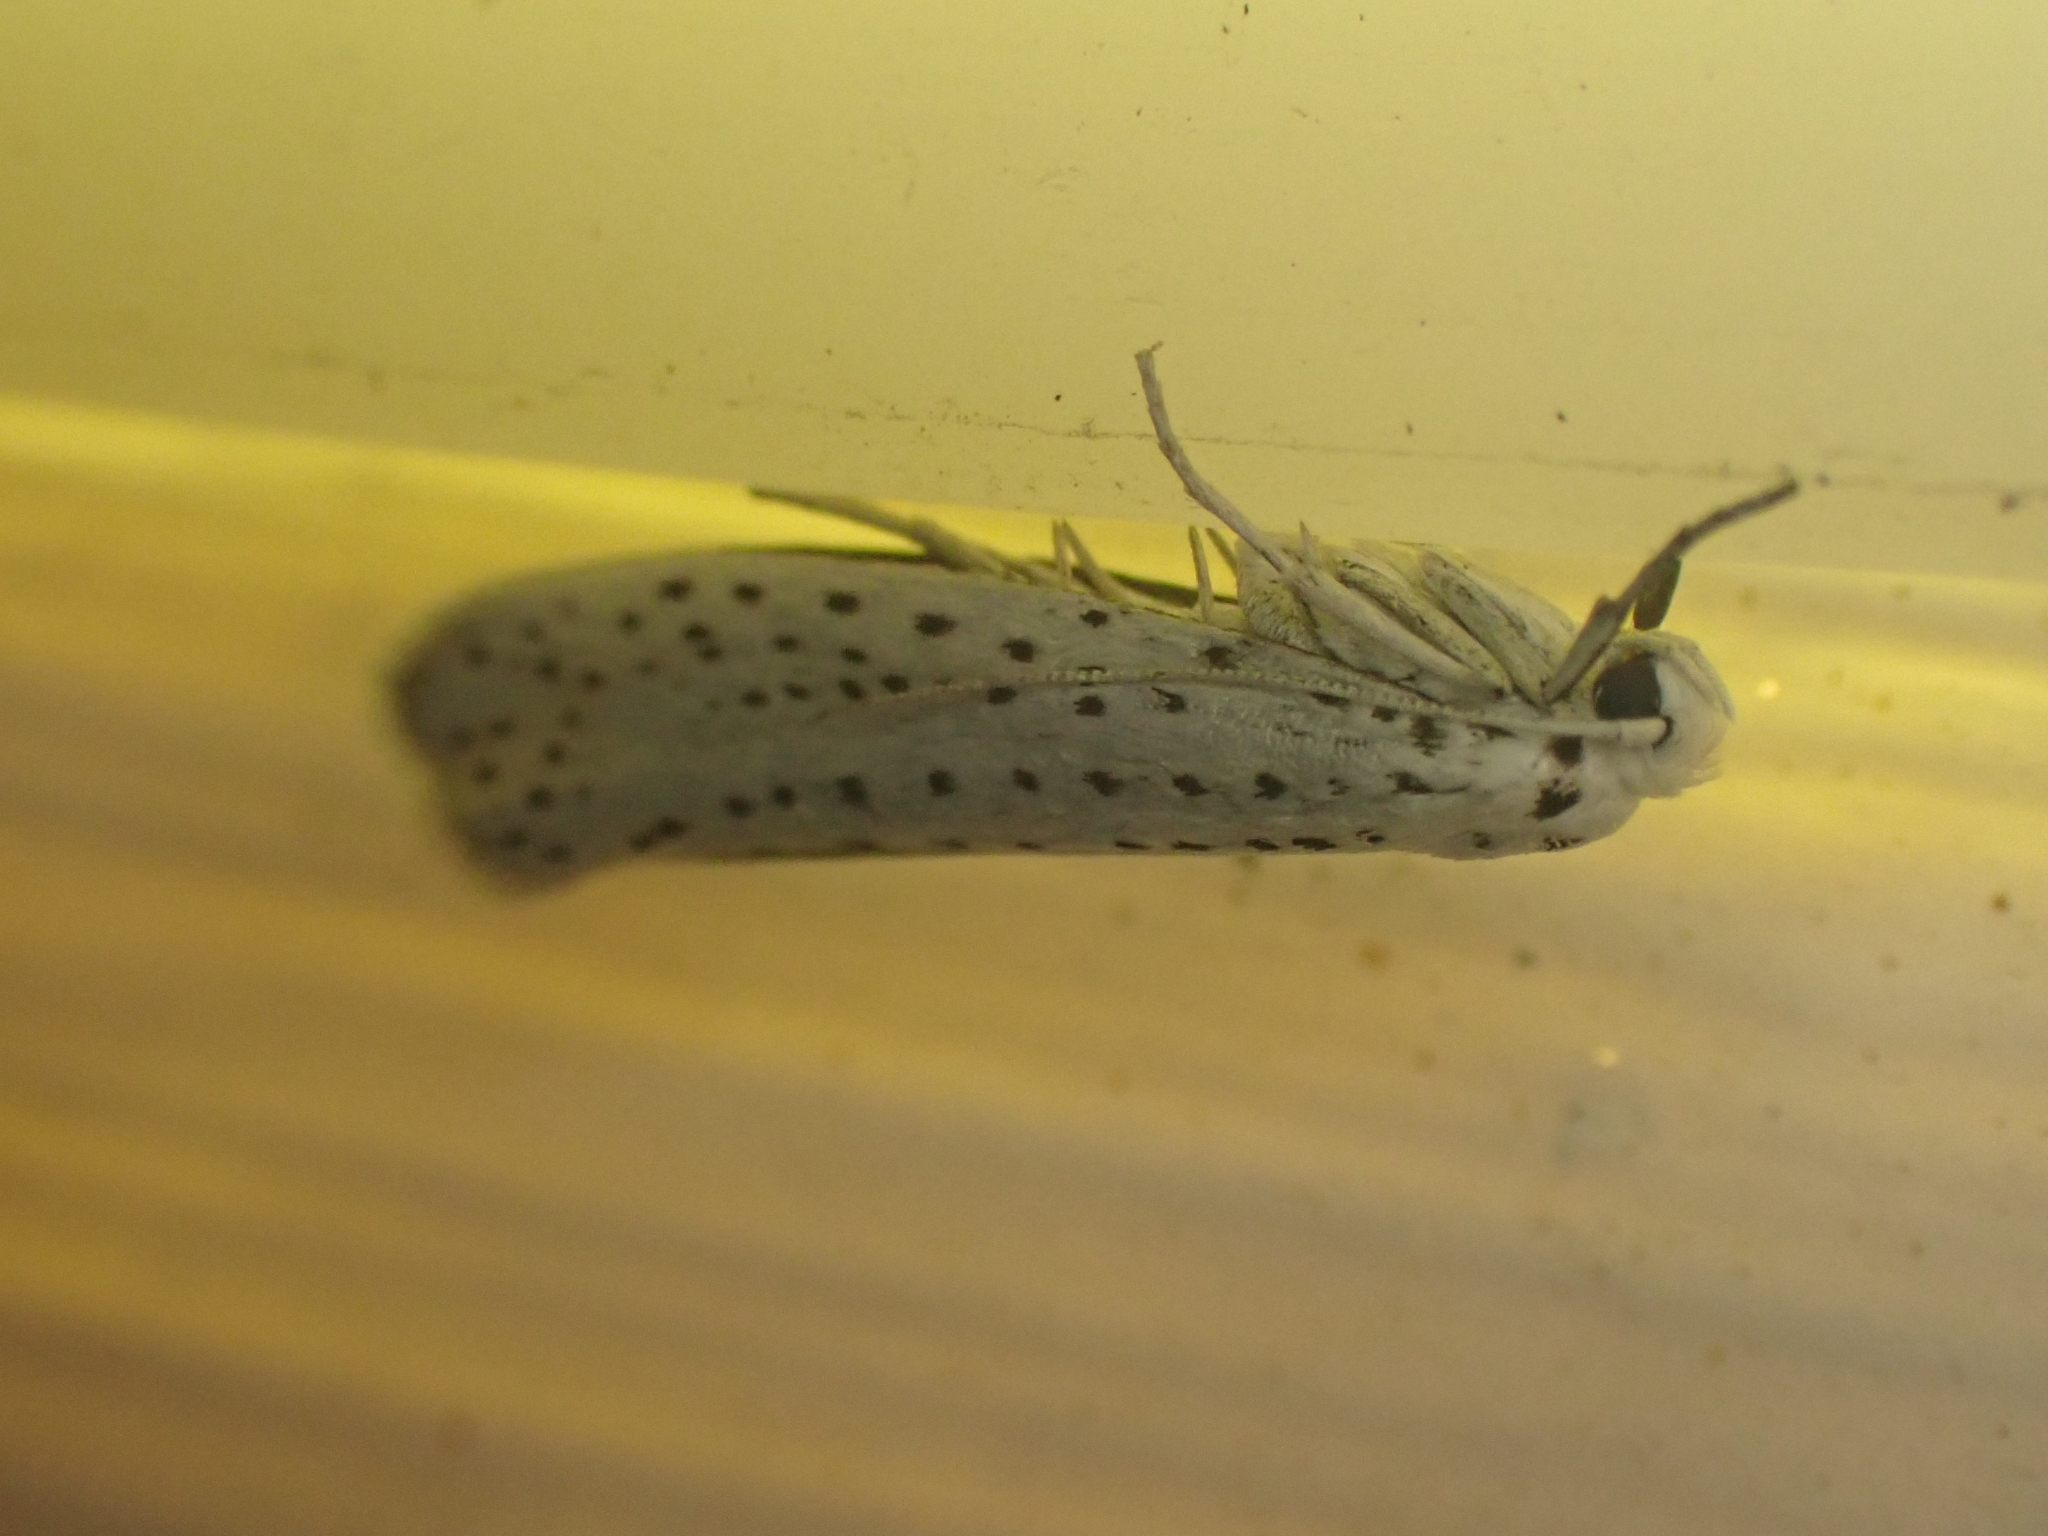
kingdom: Animalia
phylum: Arthropoda
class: Insecta
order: Lepidoptera
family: Yponomeutidae
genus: Yponomeuta
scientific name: Yponomeuta evonymella
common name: Bird-cherry ermine
